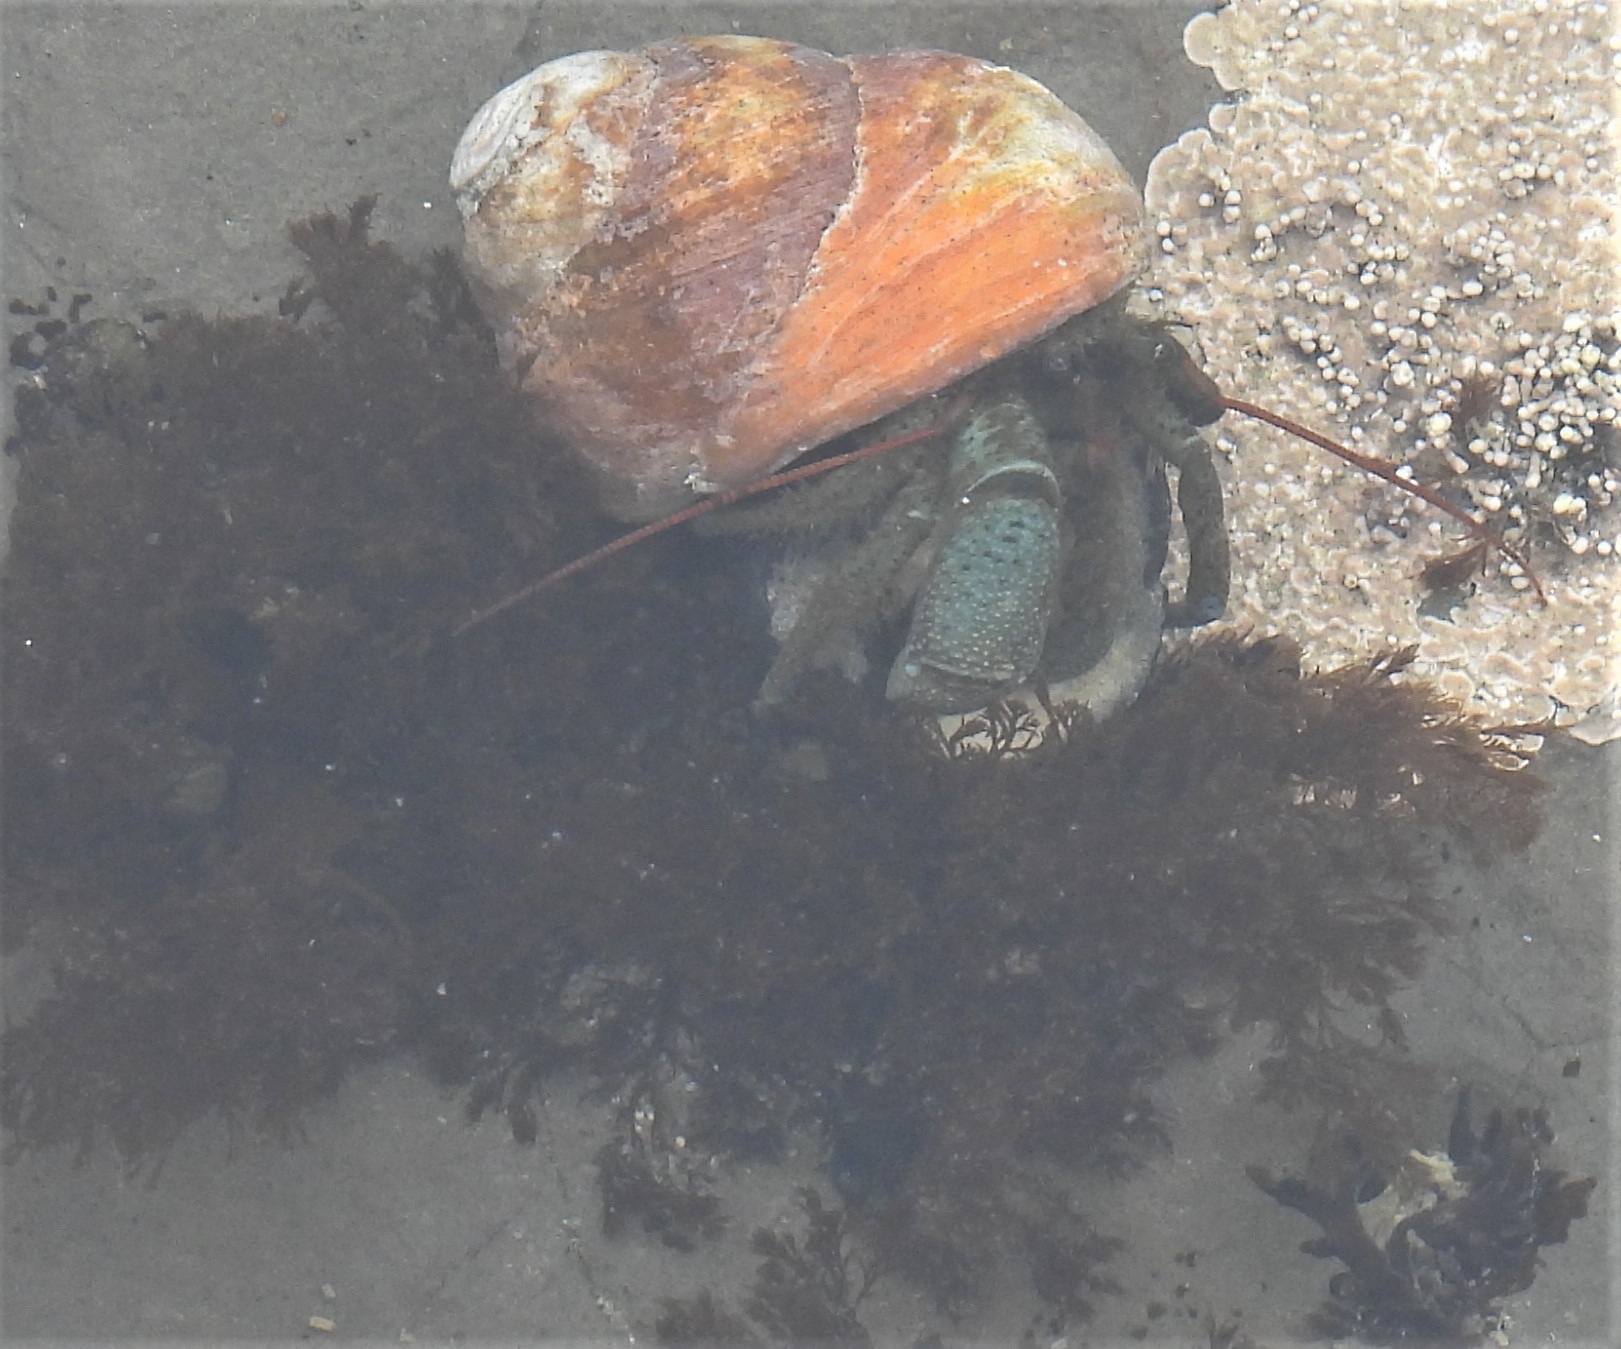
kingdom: Animalia
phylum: Arthropoda
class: Malacostraca
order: Decapoda
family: Paguridae
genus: Pagurus
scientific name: Pagurus samuelis
